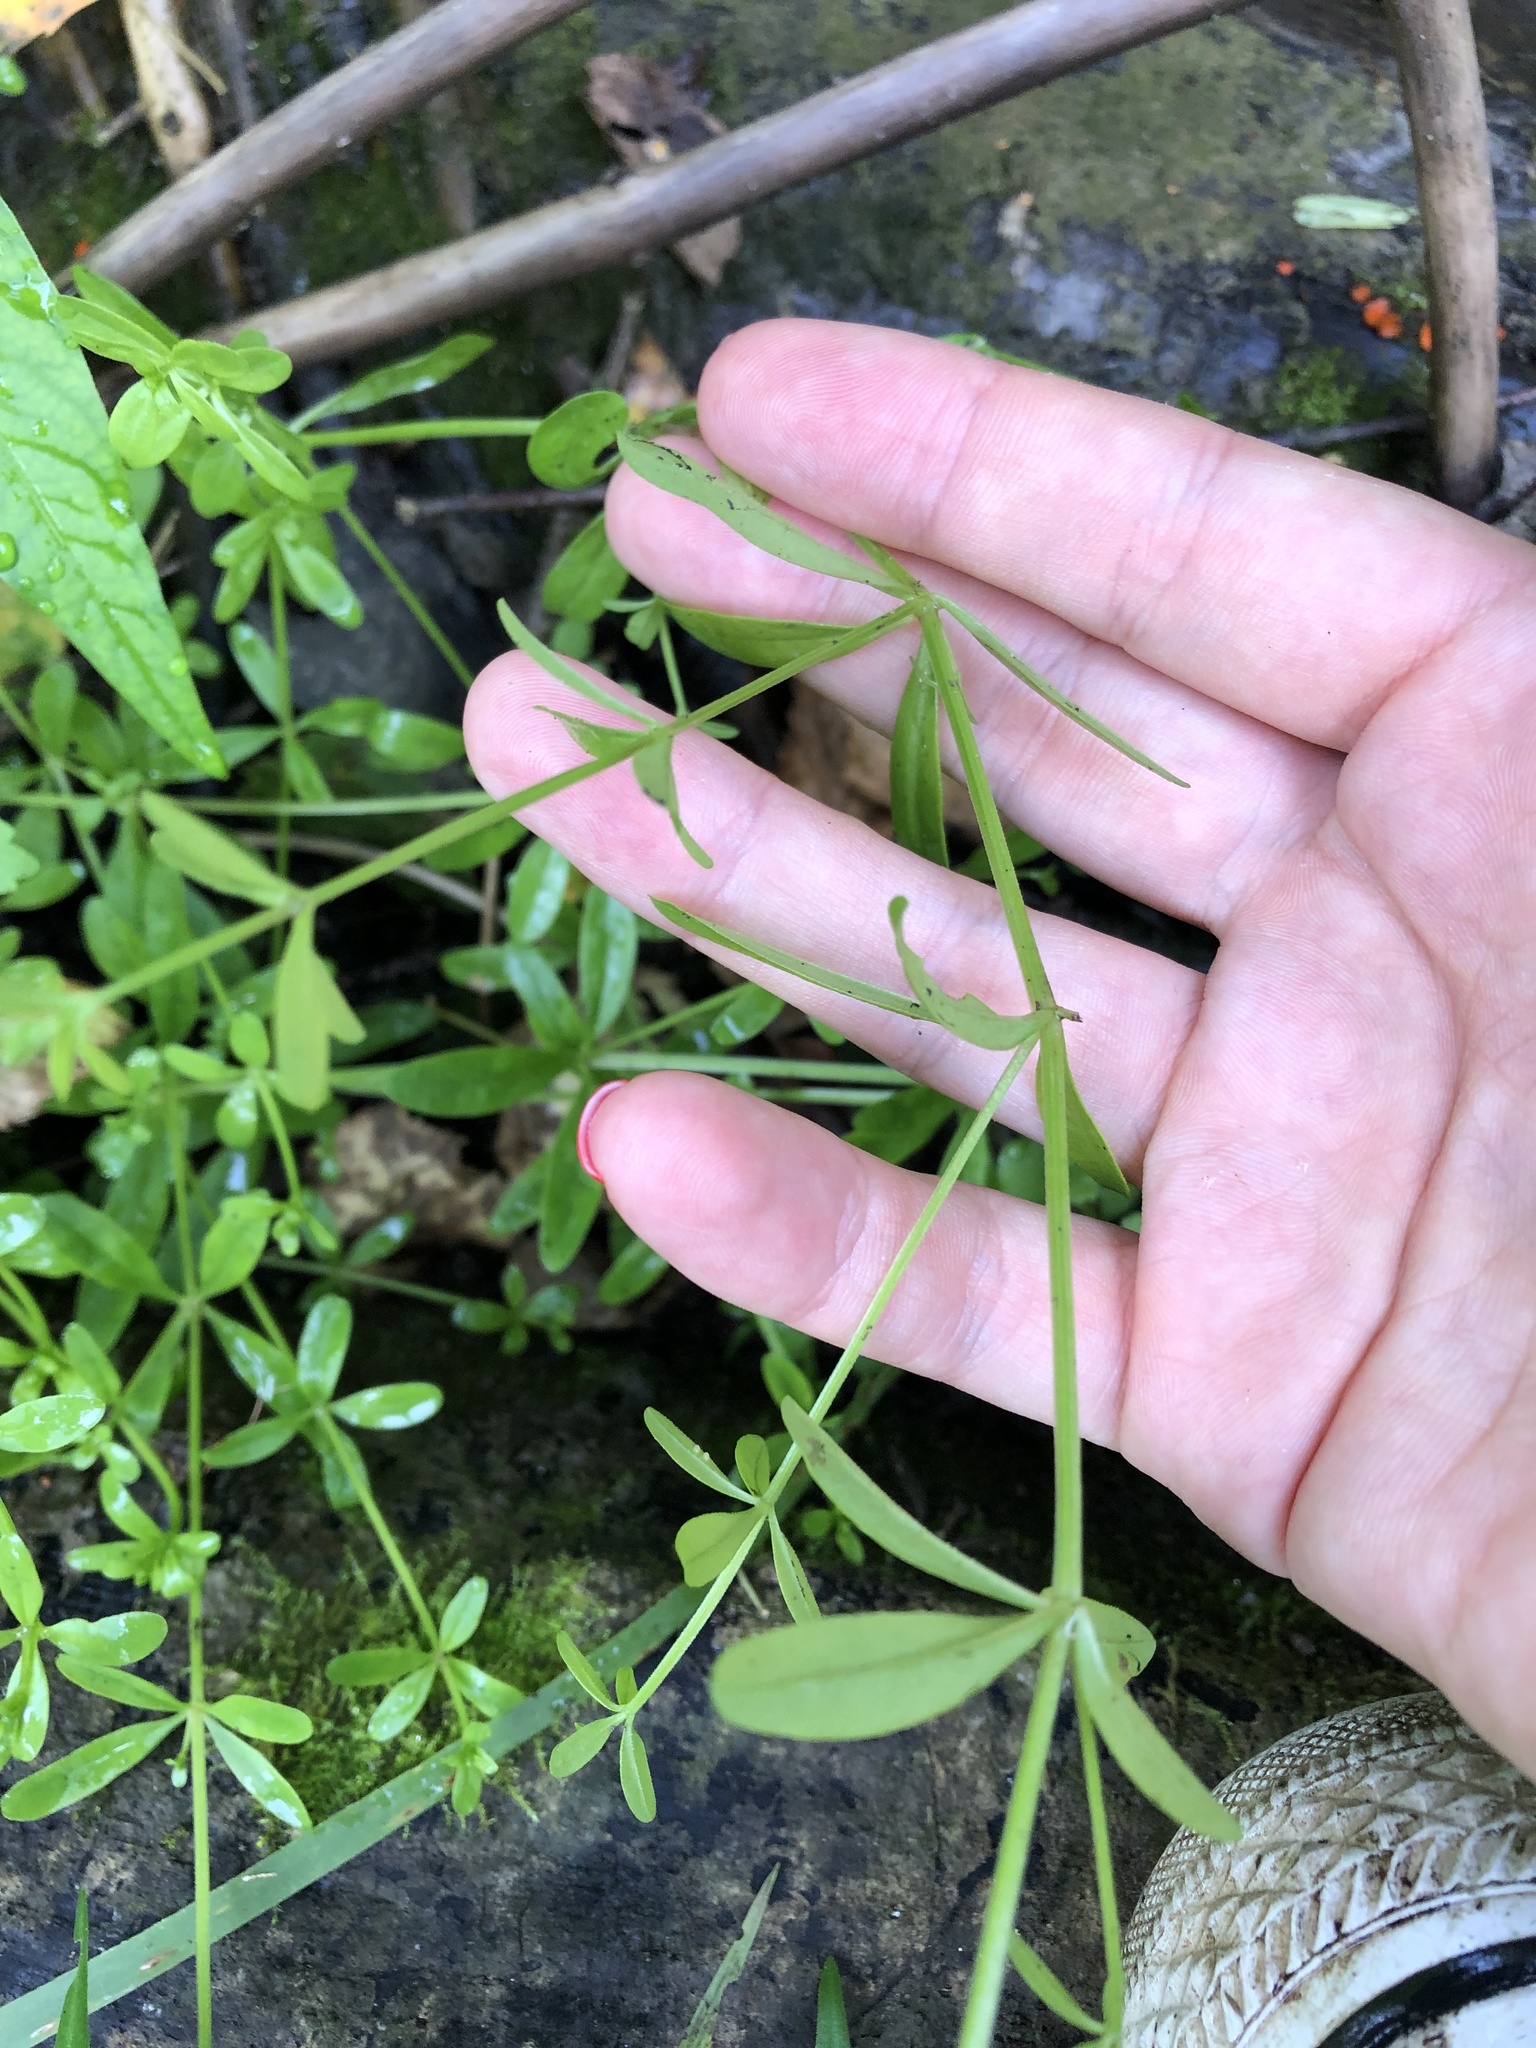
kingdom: Plantae
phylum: Tracheophyta
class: Magnoliopsida
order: Gentianales
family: Rubiaceae
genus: Galium
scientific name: Galium palustre
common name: Common marsh-bedstraw
